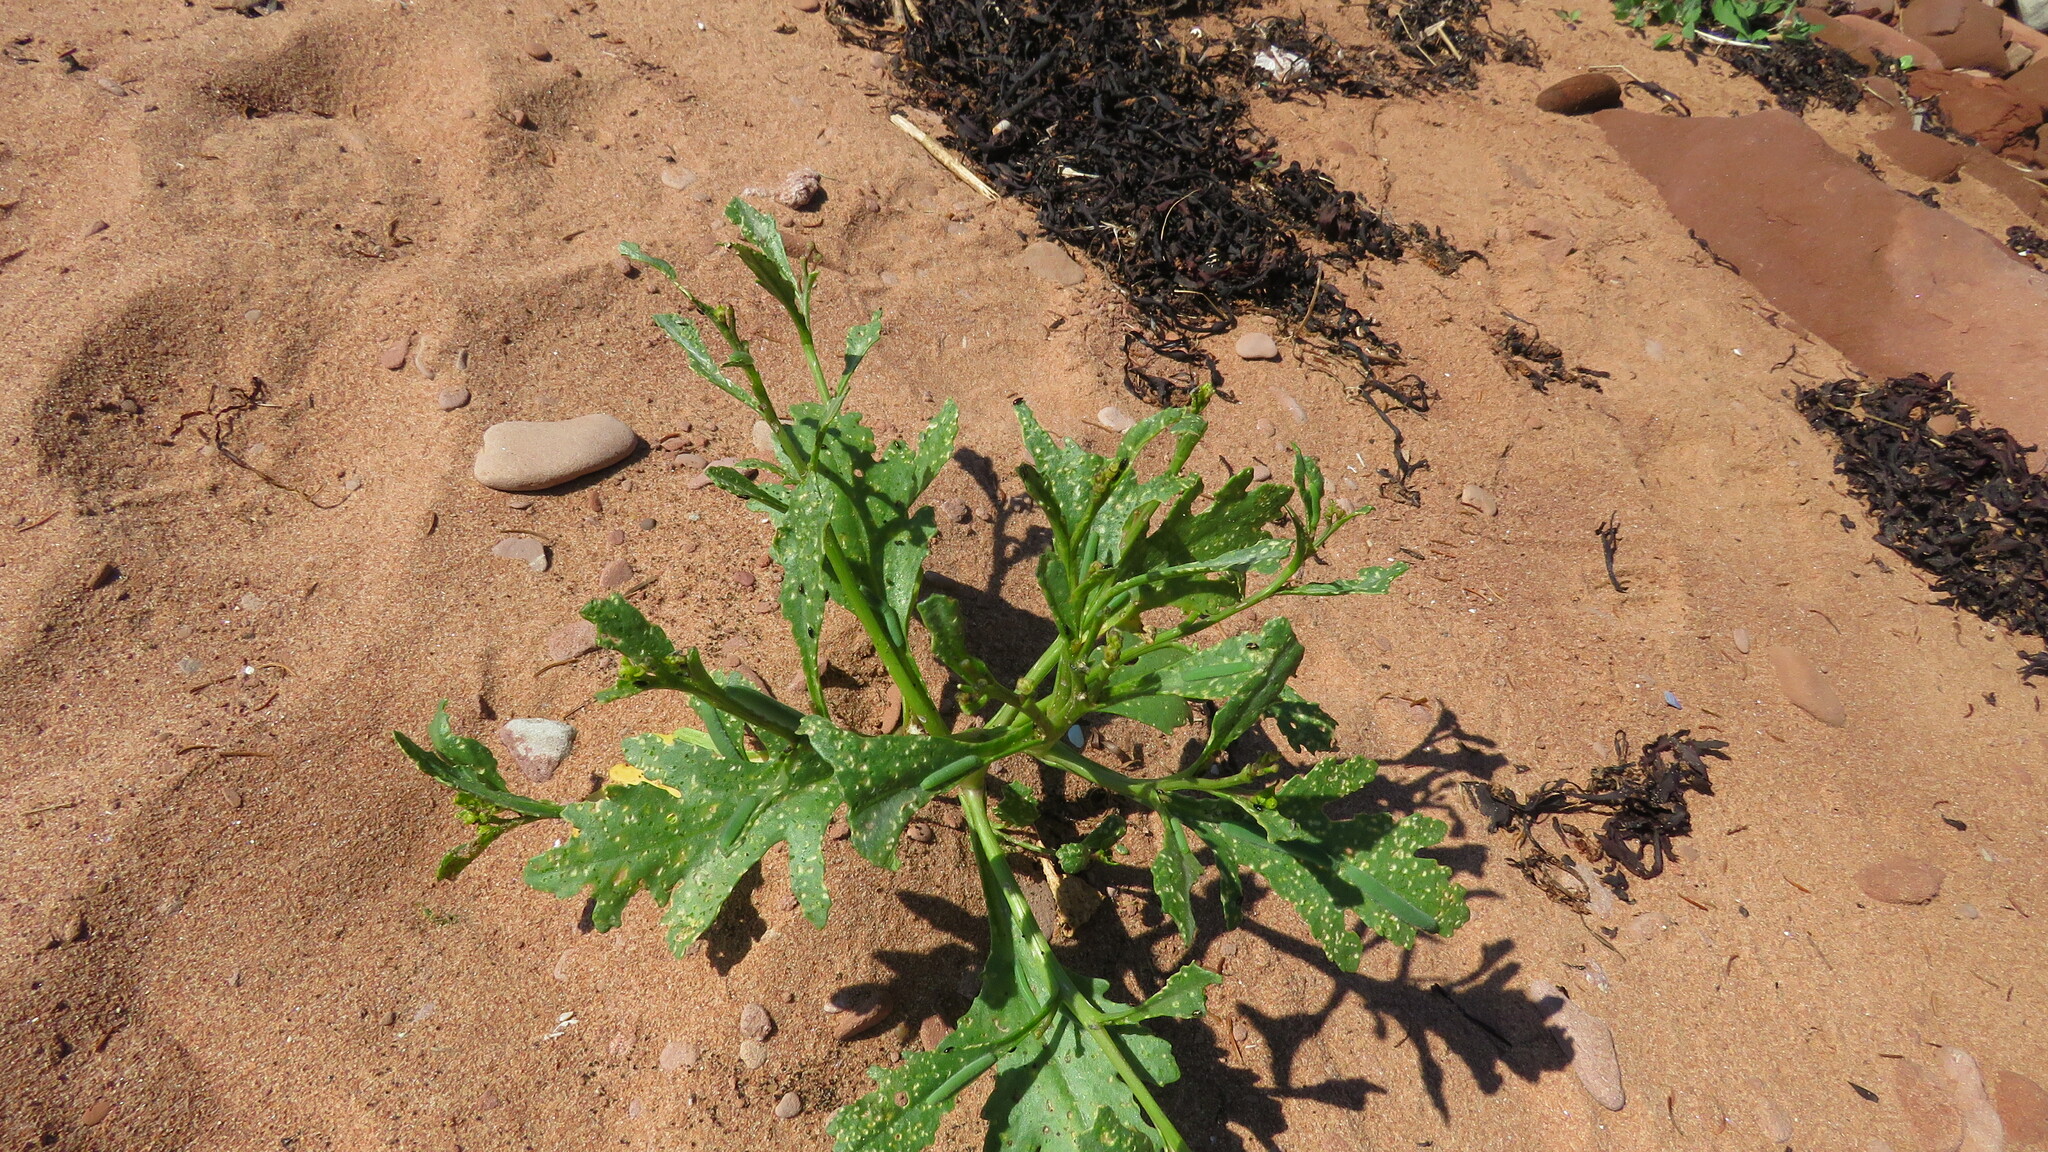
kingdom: Plantae
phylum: Tracheophyta
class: Magnoliopsida
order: Brassicales
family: Brassicaceae
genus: Cakile
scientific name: Cakile edentula
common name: American sea rocket
